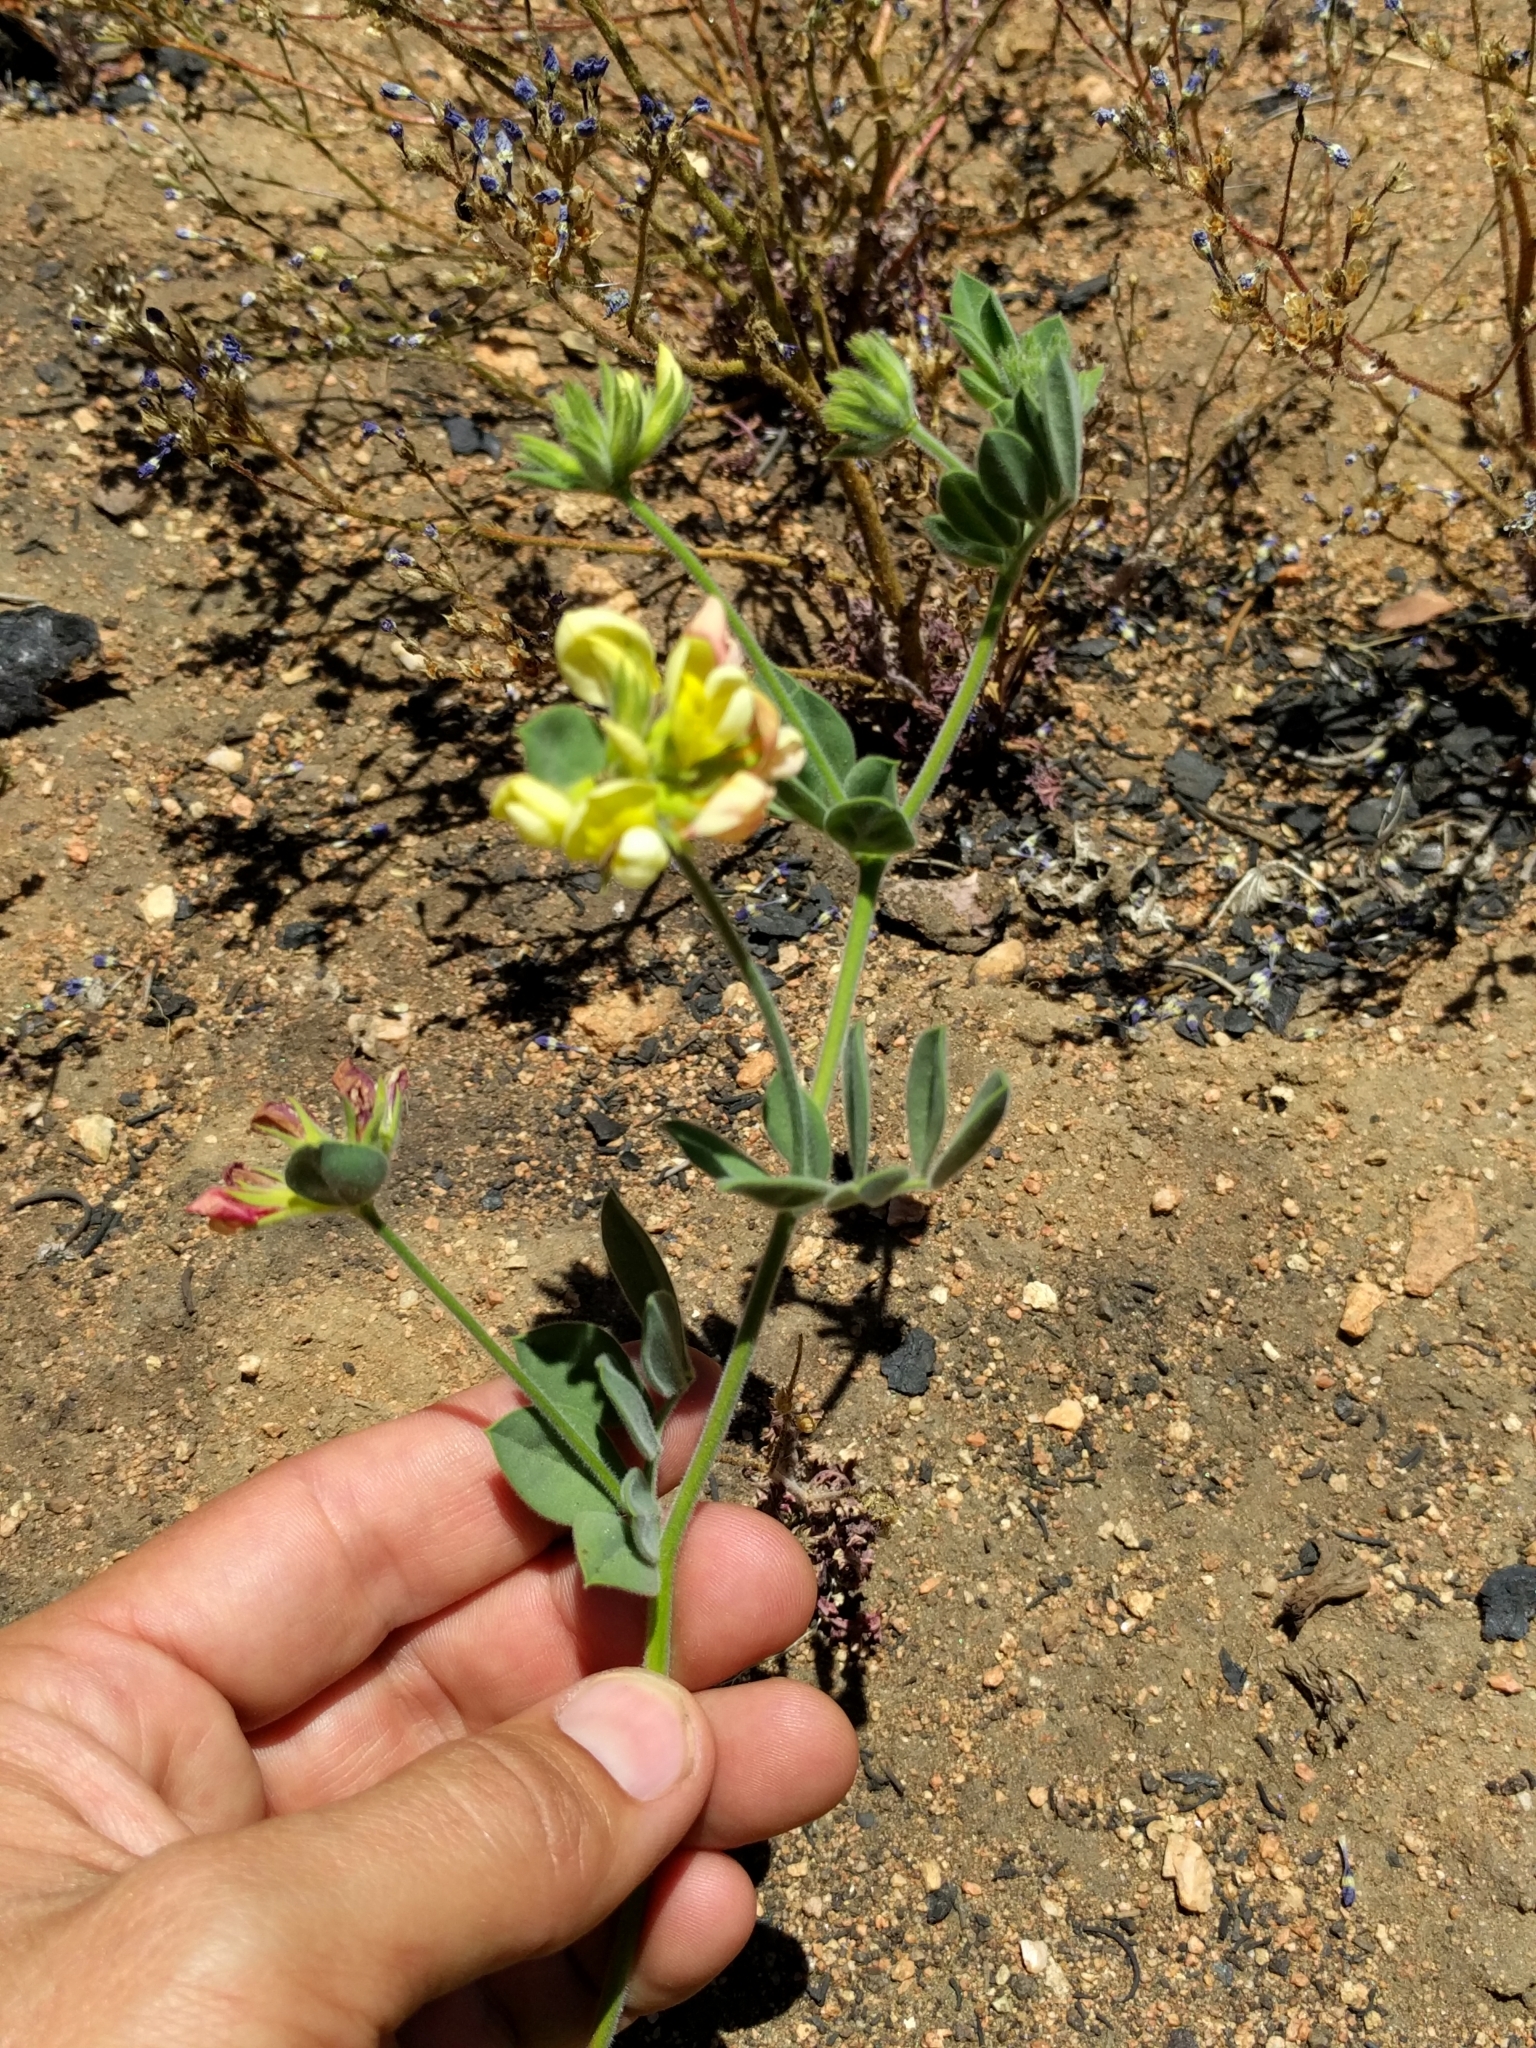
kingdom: Plantae
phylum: Tracheophyta
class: Magnoliopsida
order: Fabales
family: Fabaceae
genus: Acmispon
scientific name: Acmispon grandiflorus
